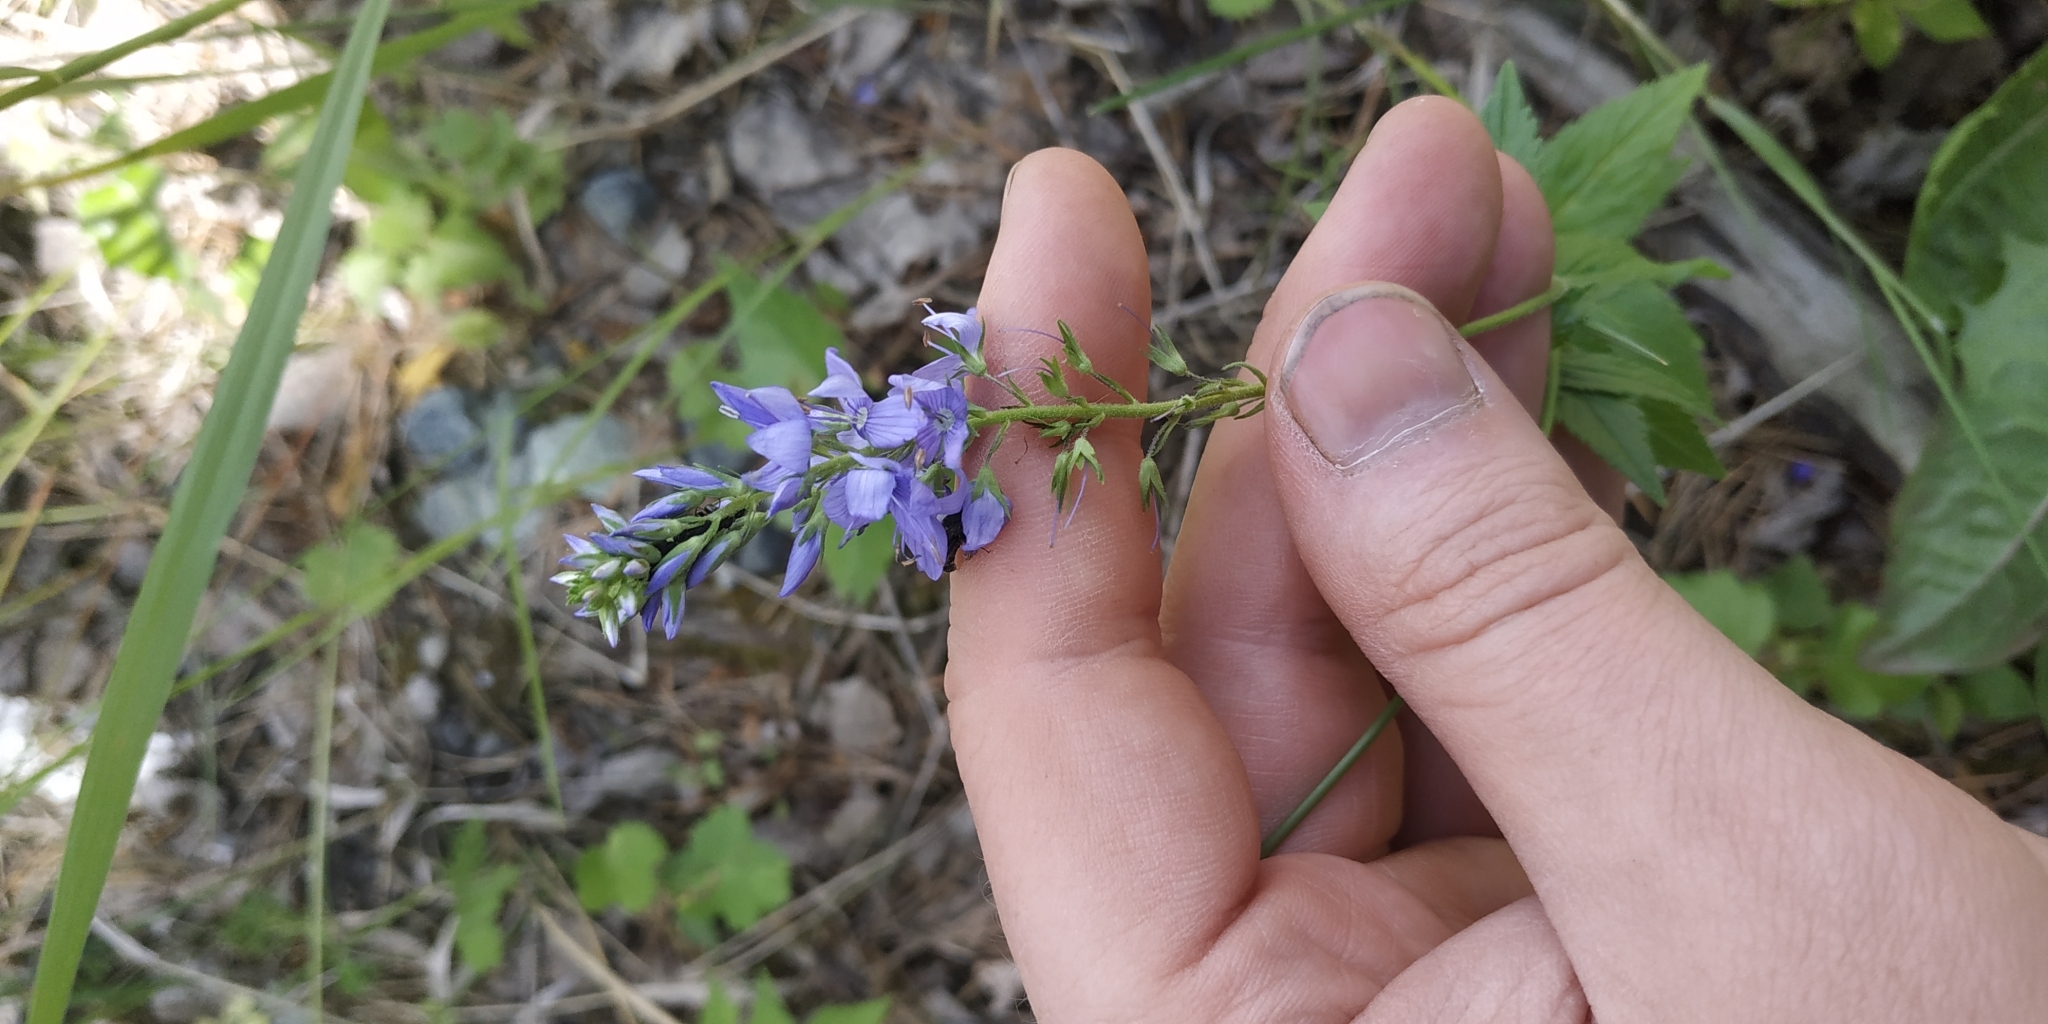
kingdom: Plantae
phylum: Tracheophyta
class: Magnoliopsida
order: Lamiales
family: Plantaginaceae
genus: Veronica
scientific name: Veronica teucrium
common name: Large speedwell
